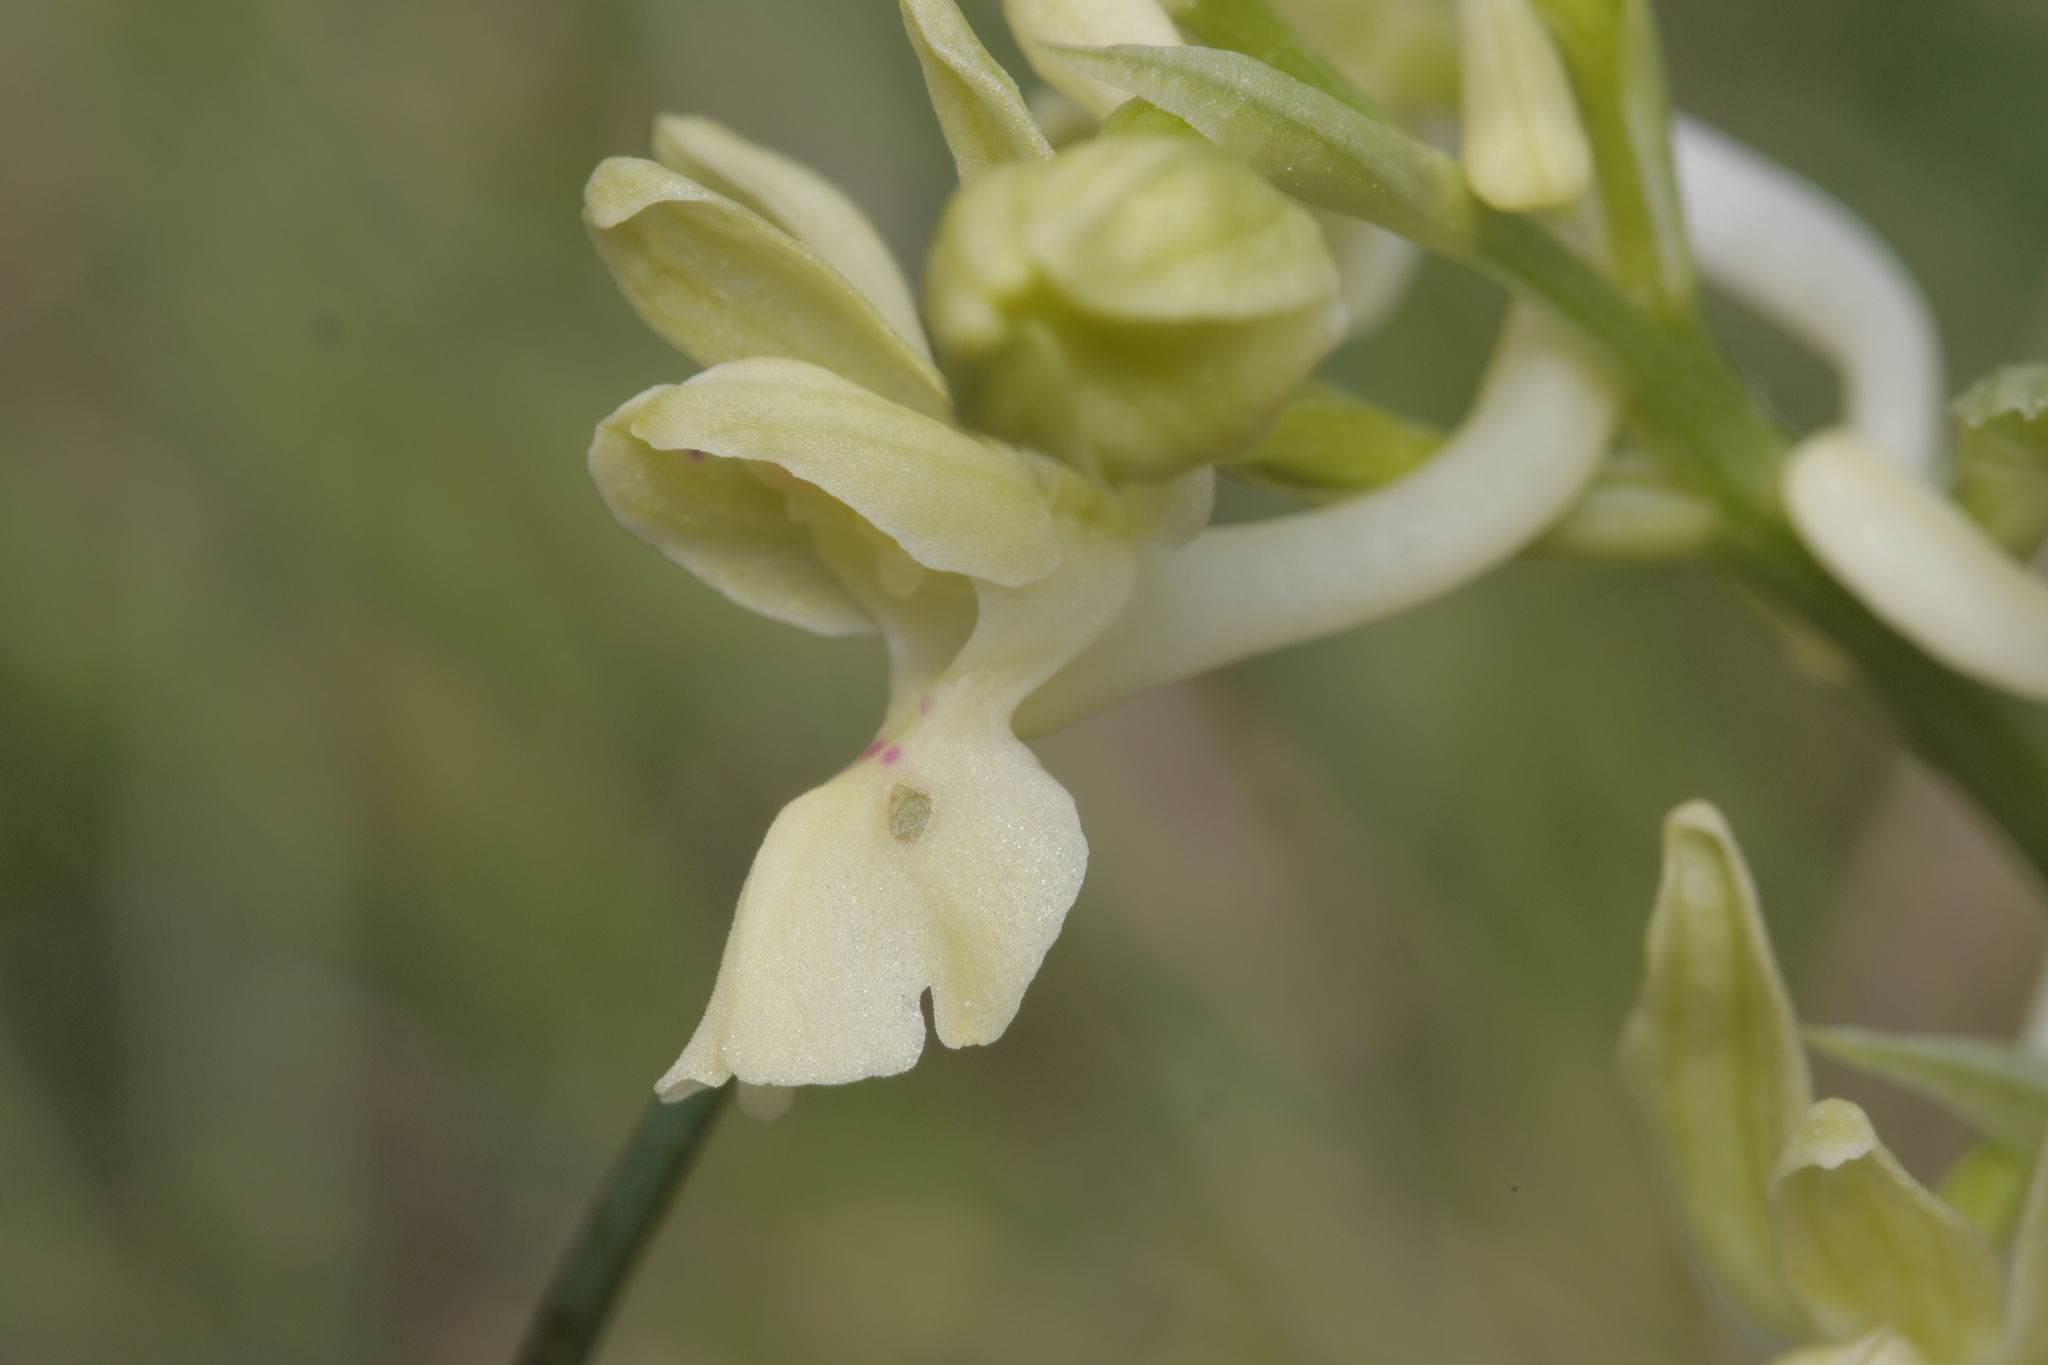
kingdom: Plantae
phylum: Tracheophyta
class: Liliopsida
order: Asparagales
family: Orchidaceae
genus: Orchis
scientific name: Orchis provincialis
